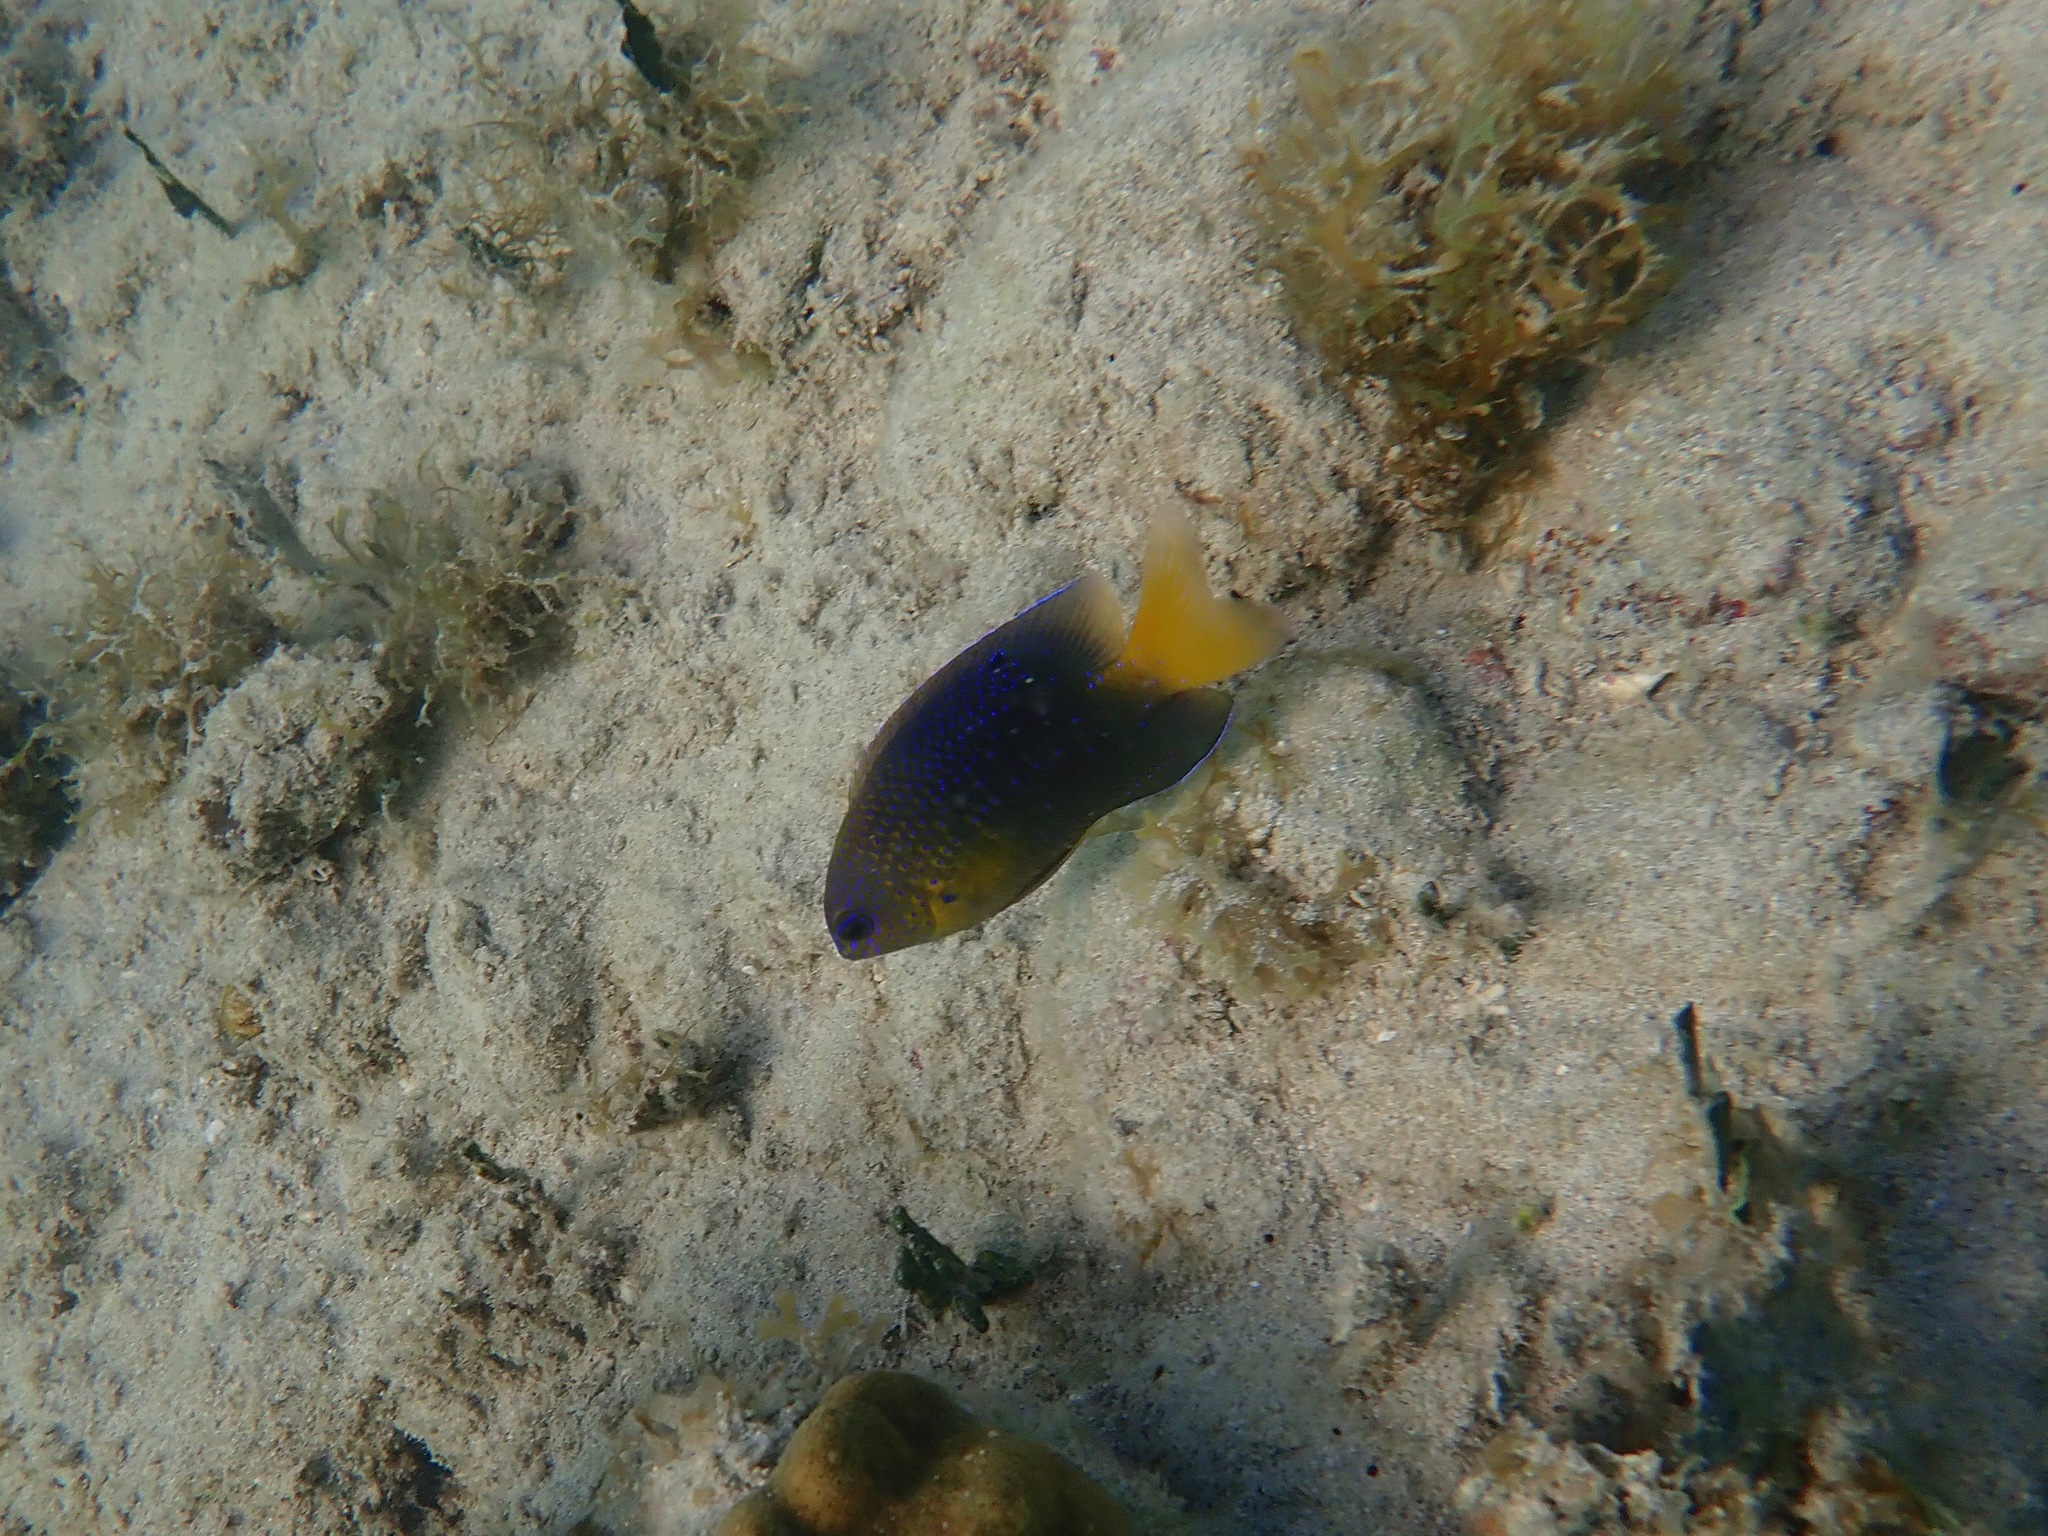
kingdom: Animalia
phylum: Chordata
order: Perciformes
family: Pomacentridae
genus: Stegastes
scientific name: Stegastes leucostictus
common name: Beaugregory
